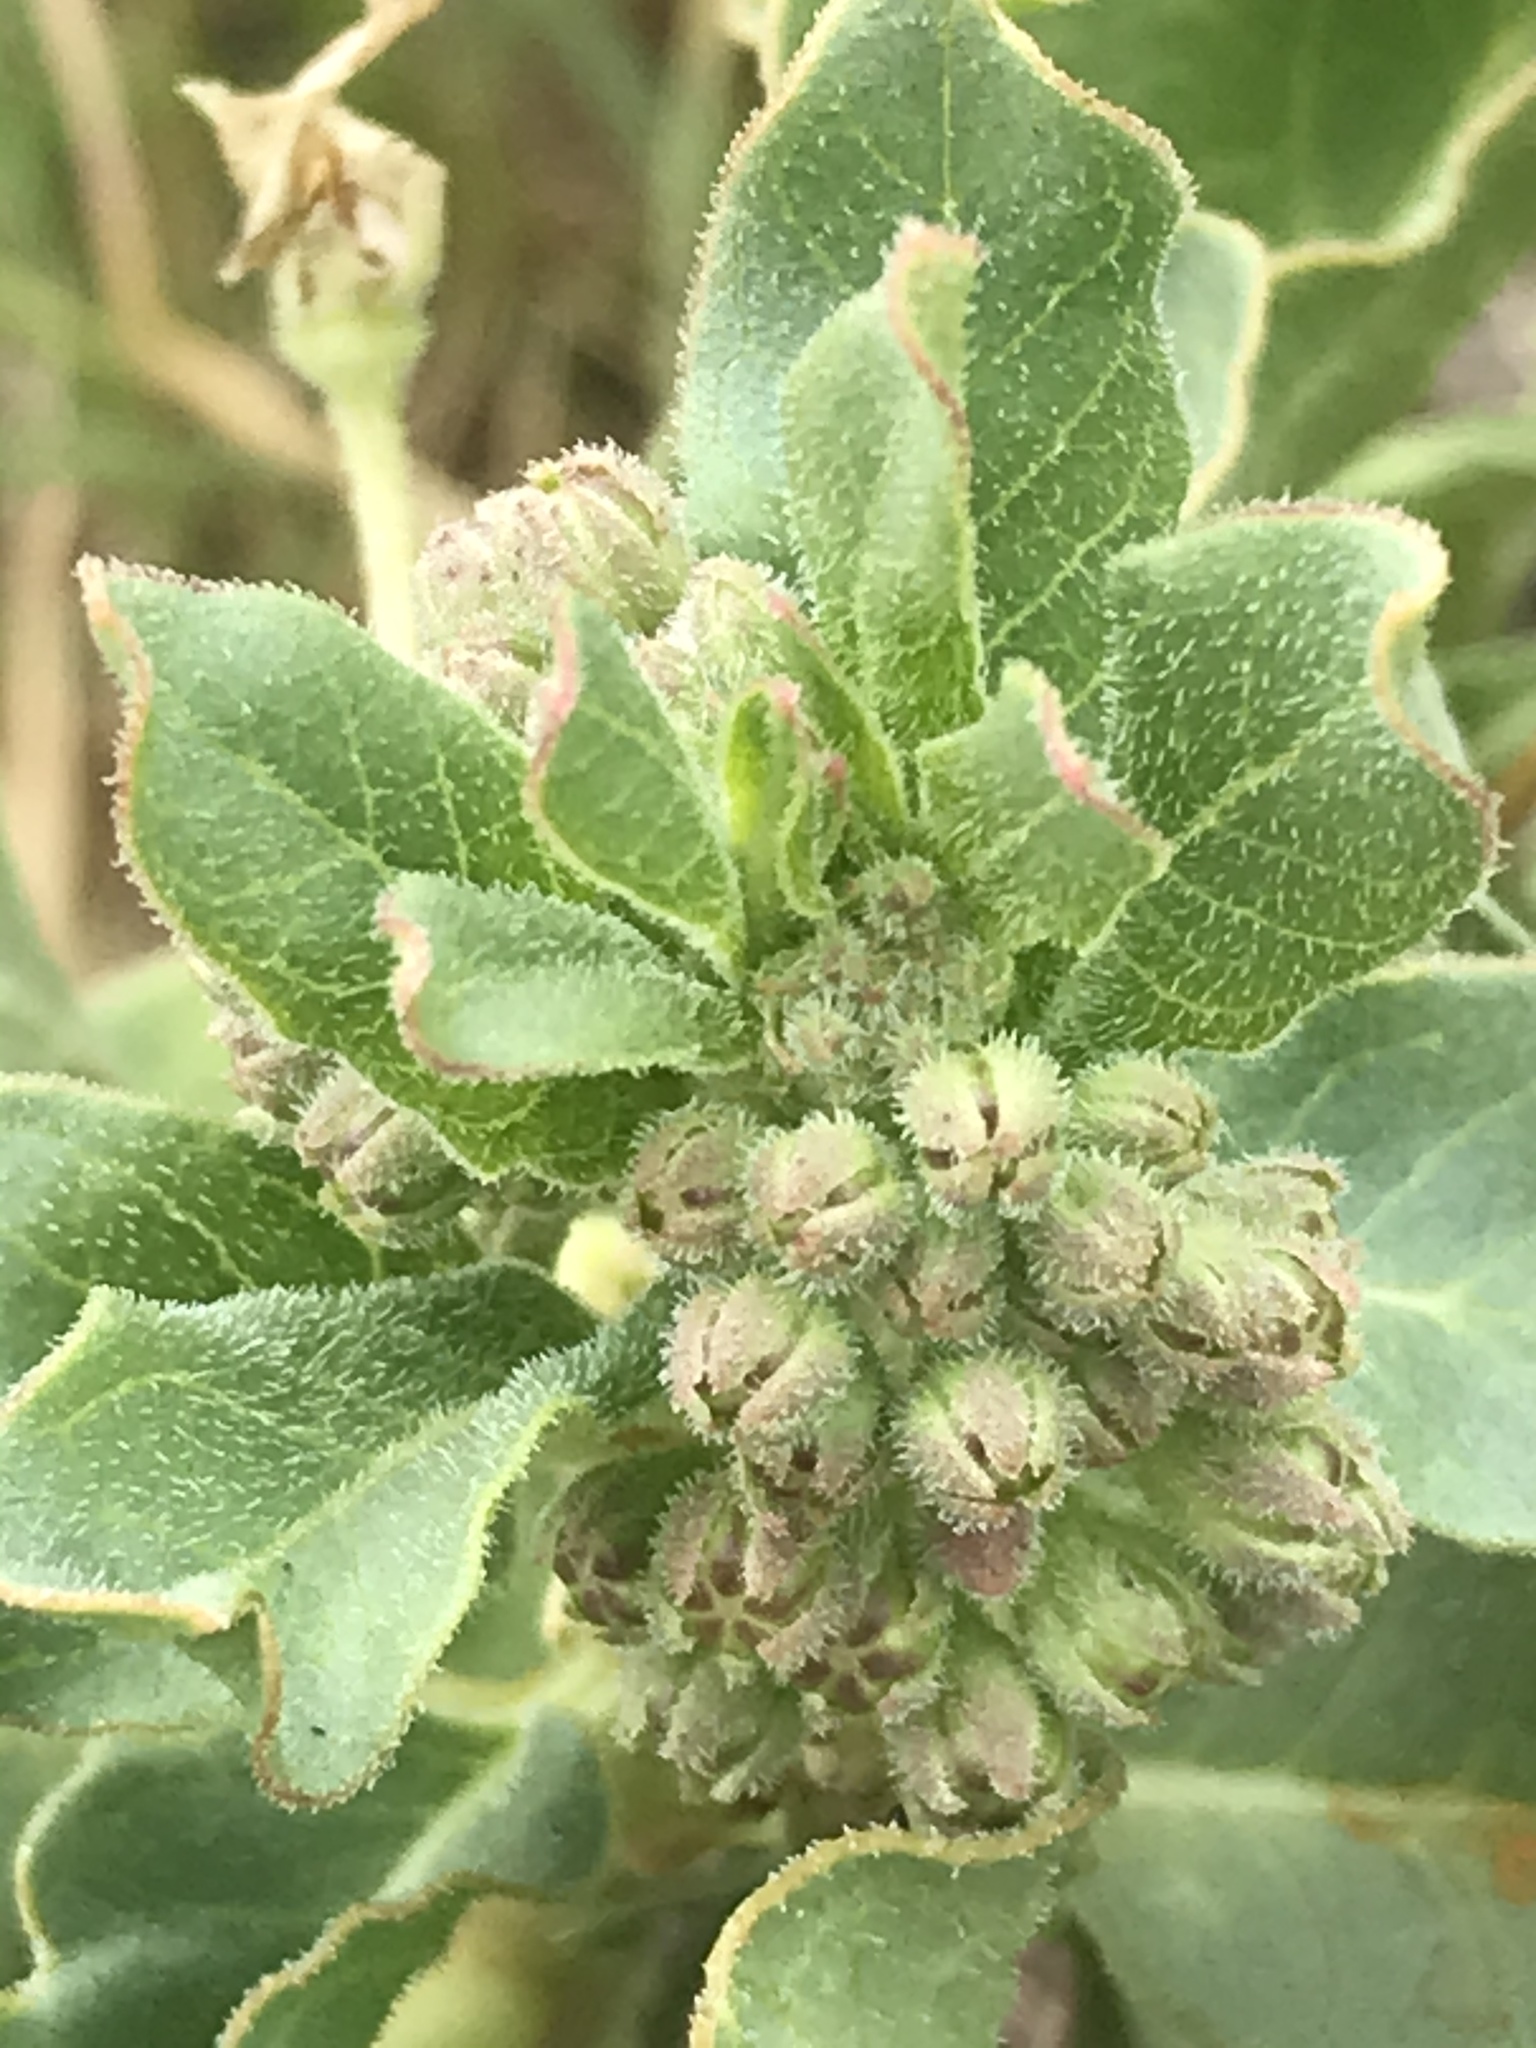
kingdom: Plantae
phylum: Tracheophyta
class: Magnoliopsida
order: Gentianales
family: Apocynaceae
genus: Asclepias
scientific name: Asclepias oenotheroides
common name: Zizotes milkweed
